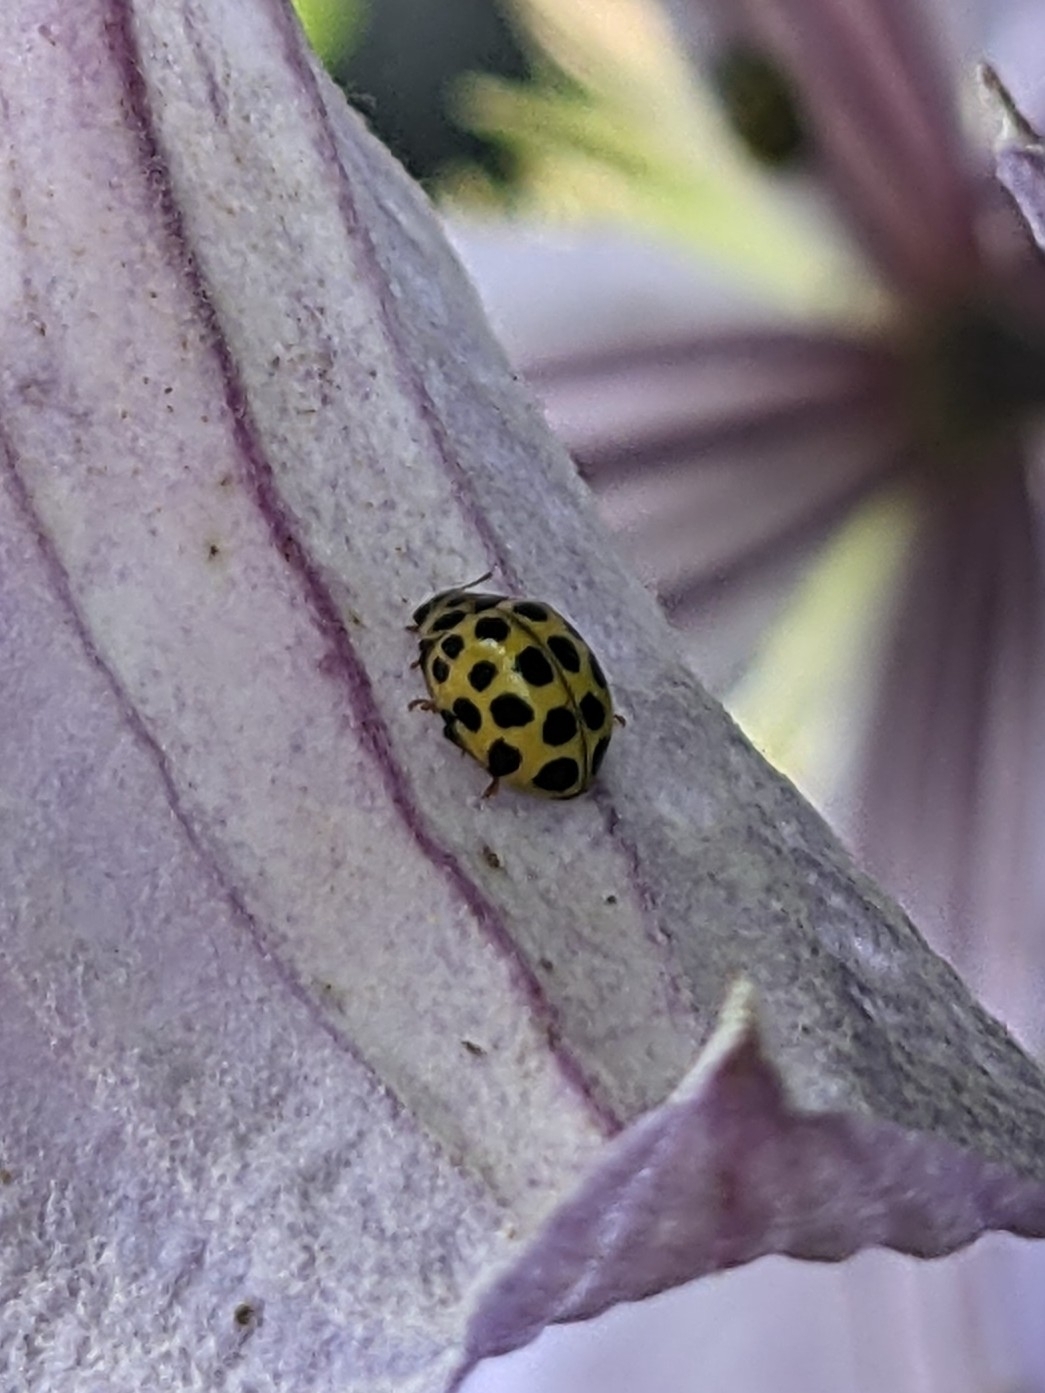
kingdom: Animalia
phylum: Arthropoda
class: Insecta
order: Coleoptera
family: Coccinellidae
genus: Psyllobora
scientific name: Psyllobora vigintiduopunctata
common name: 22-spot ladybird
